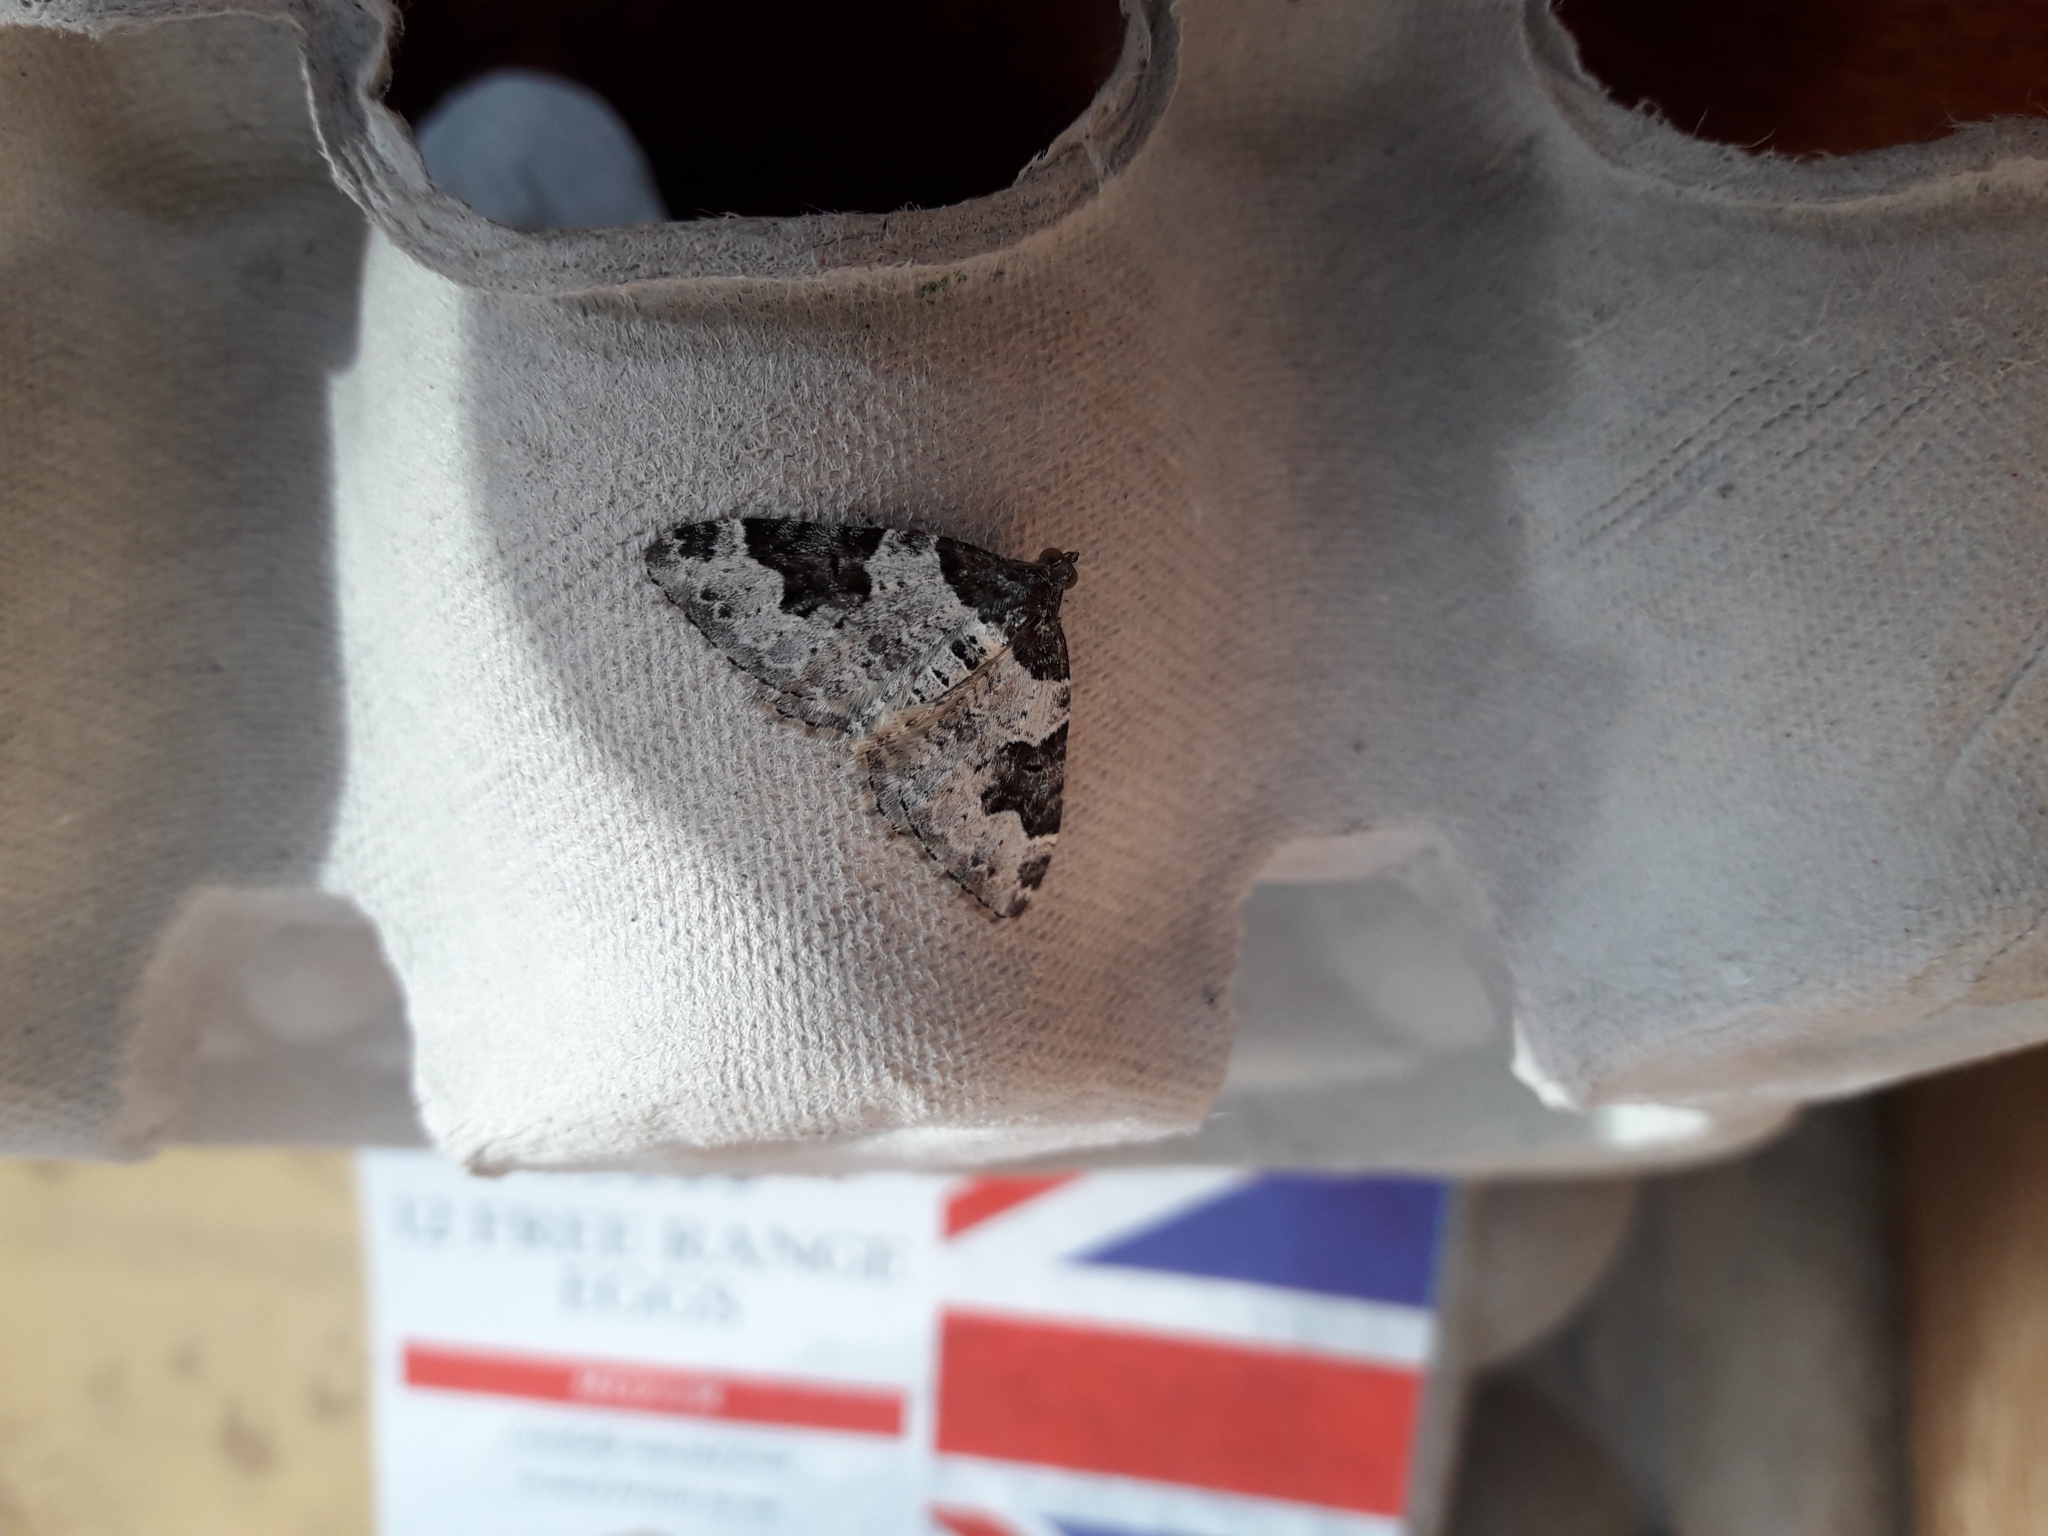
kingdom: Animalia
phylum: Arthropoda
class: Insecta
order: Lepidoptera
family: Geometridae
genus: Xanthorhoe
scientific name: Xanthorhoe fluctuata
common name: Garden carpet
